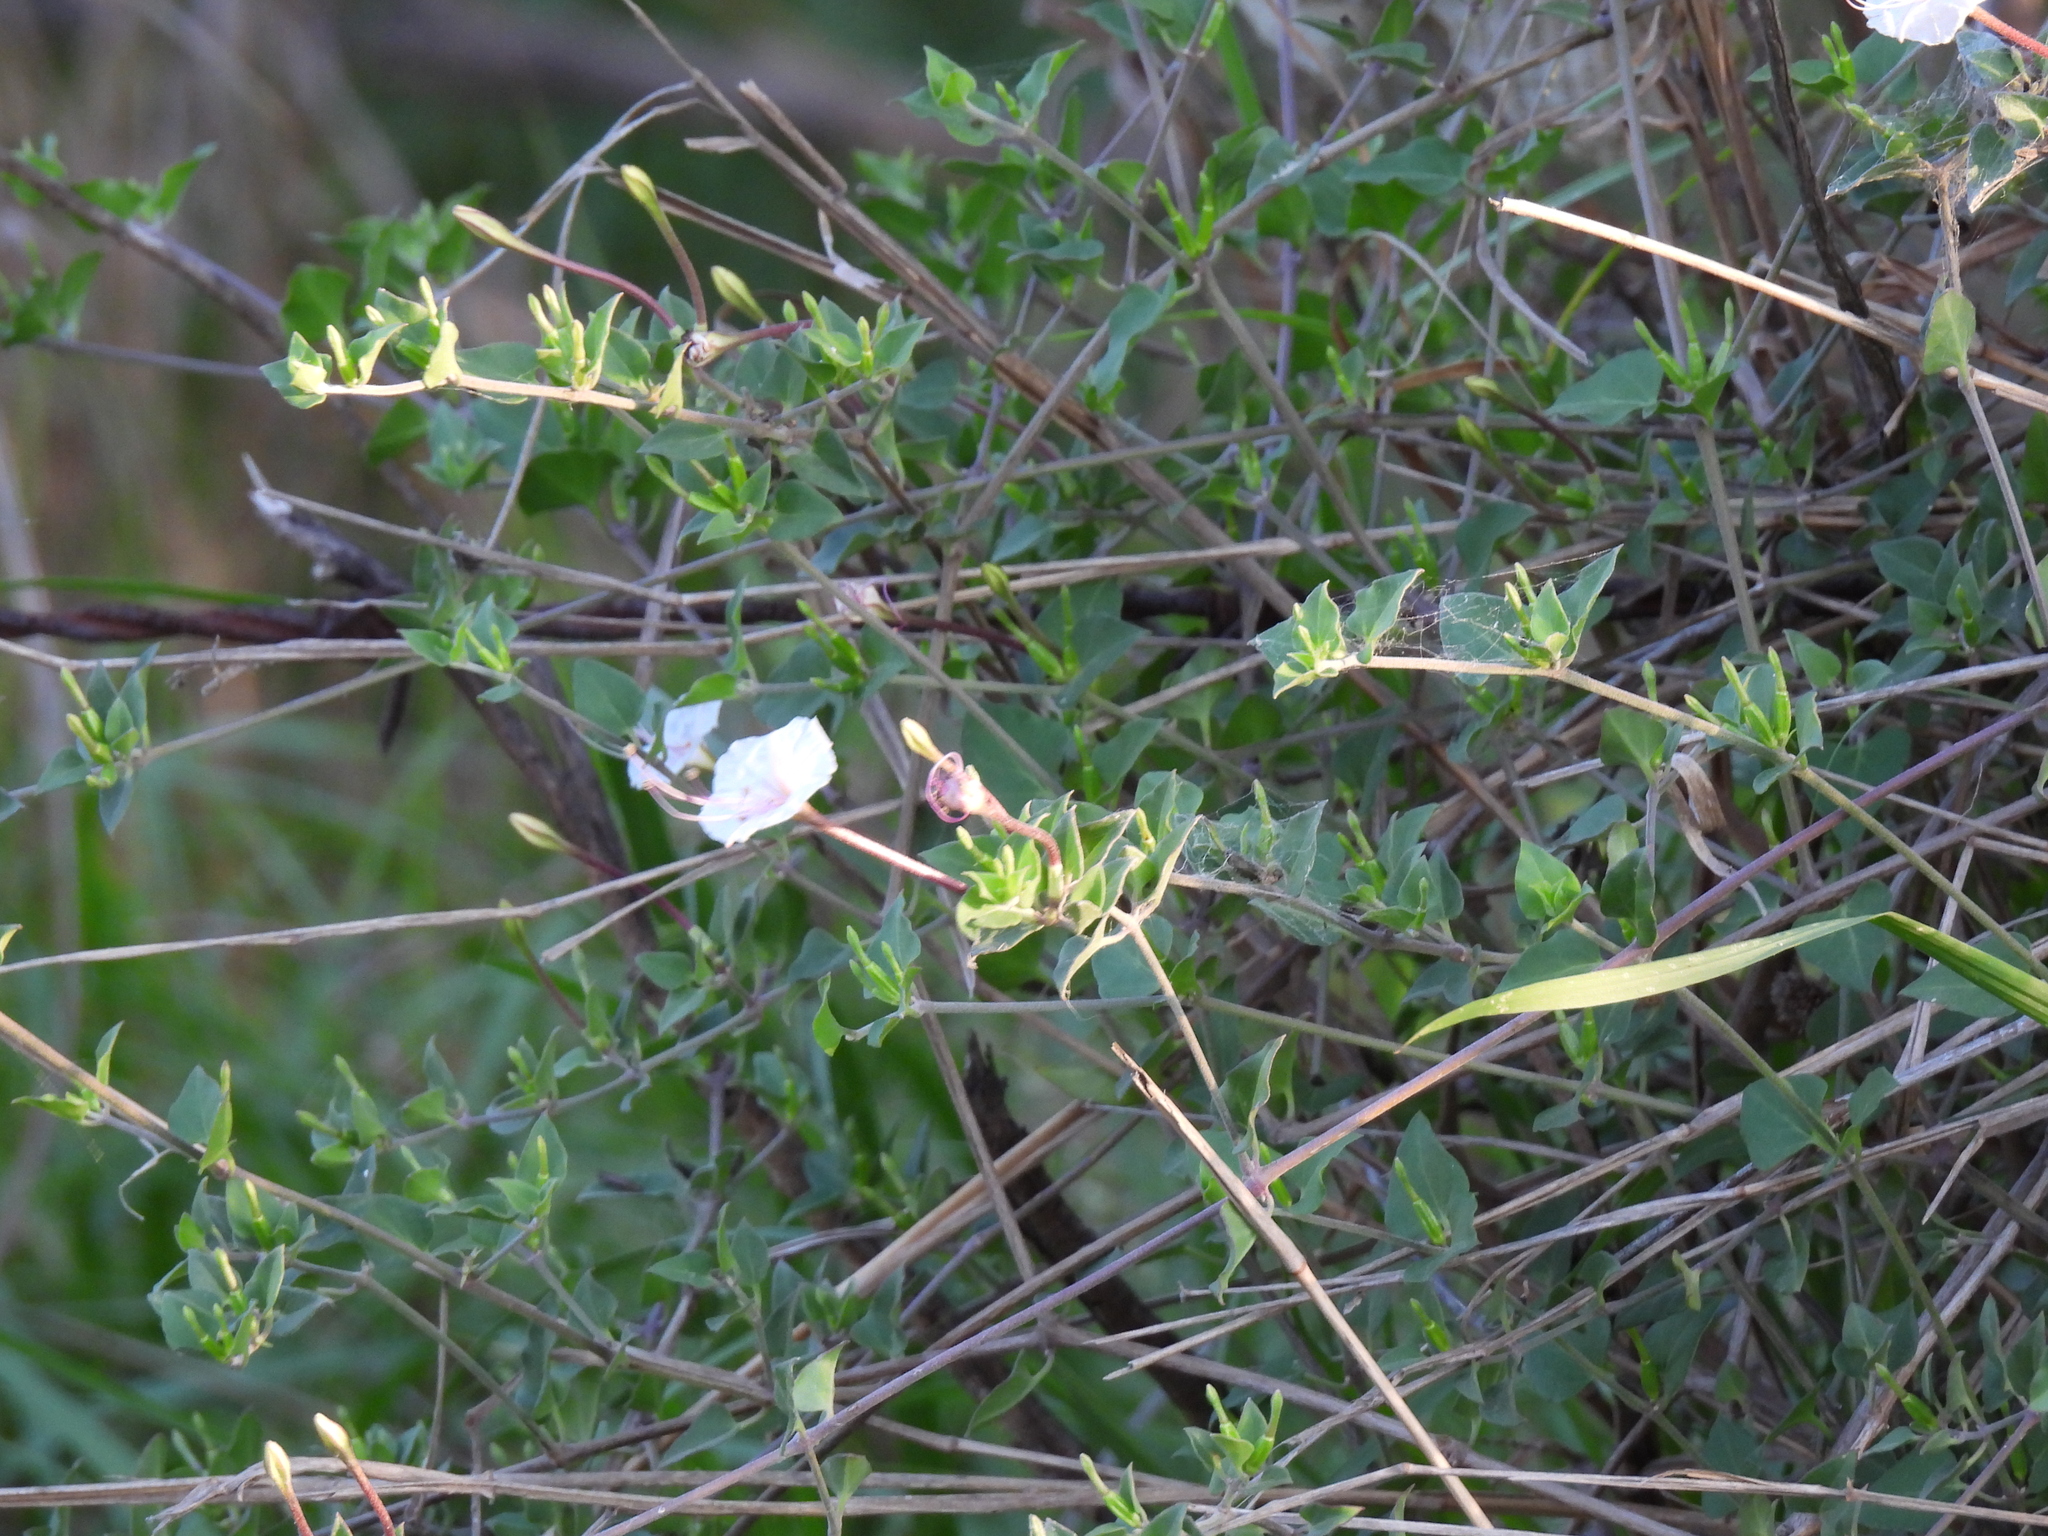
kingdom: Plantae
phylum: Tracheophyta
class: Magnoliopsida
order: Caryophyllales
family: Nyctaginaceae
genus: Acleisanthes
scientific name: Acleisanthes obtusa
